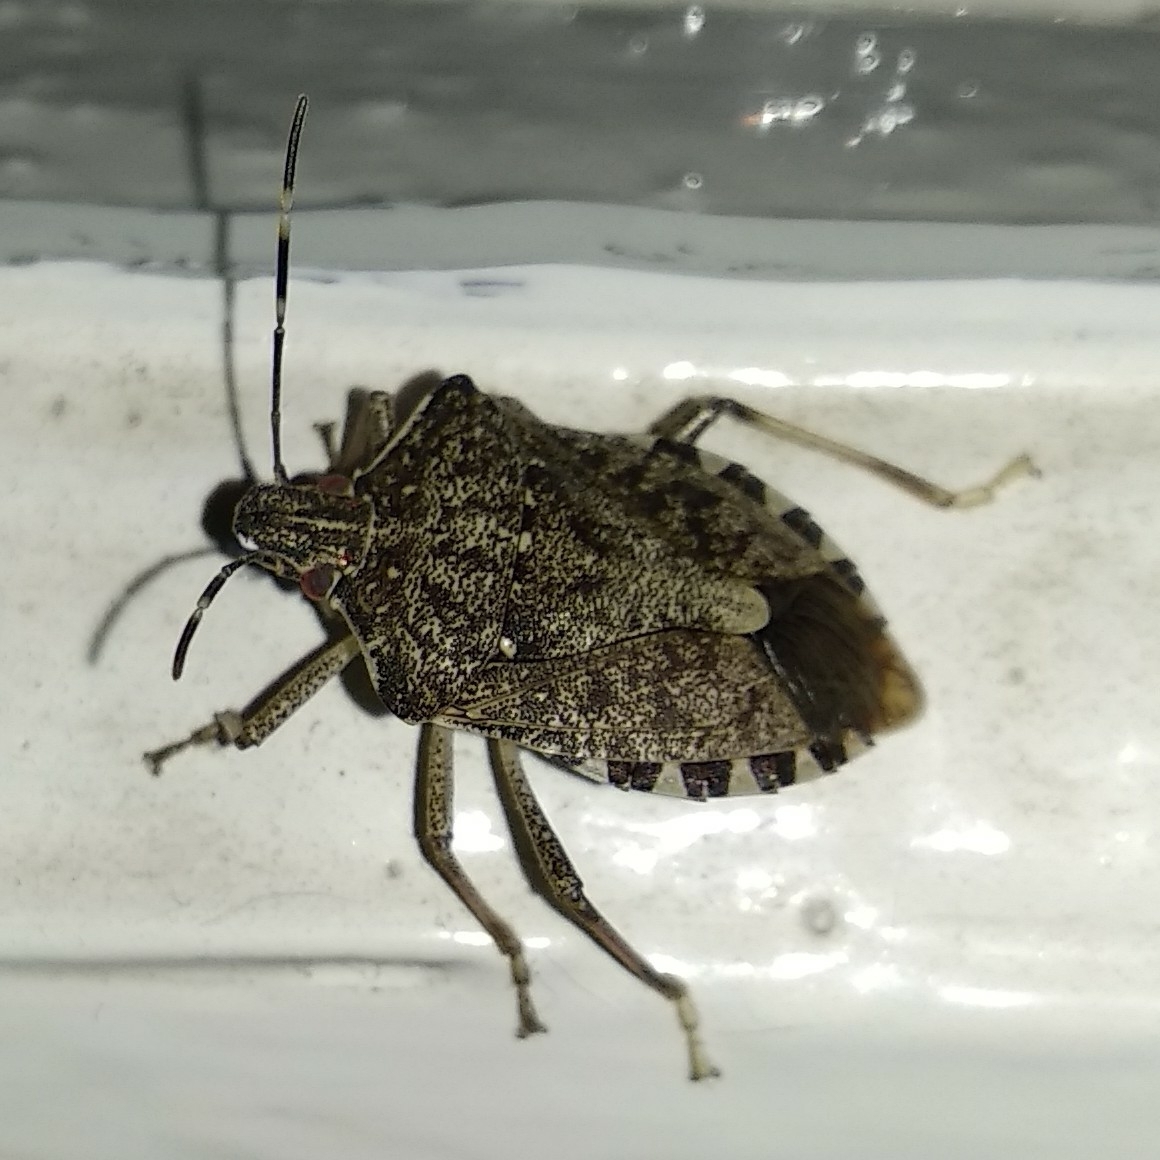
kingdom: Animalia
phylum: Arthropoda
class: Insecta
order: Hemiptera
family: Pentatomidae
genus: Halyomorpha
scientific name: Halyomorpha halys
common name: Brown marmorated stink bug
